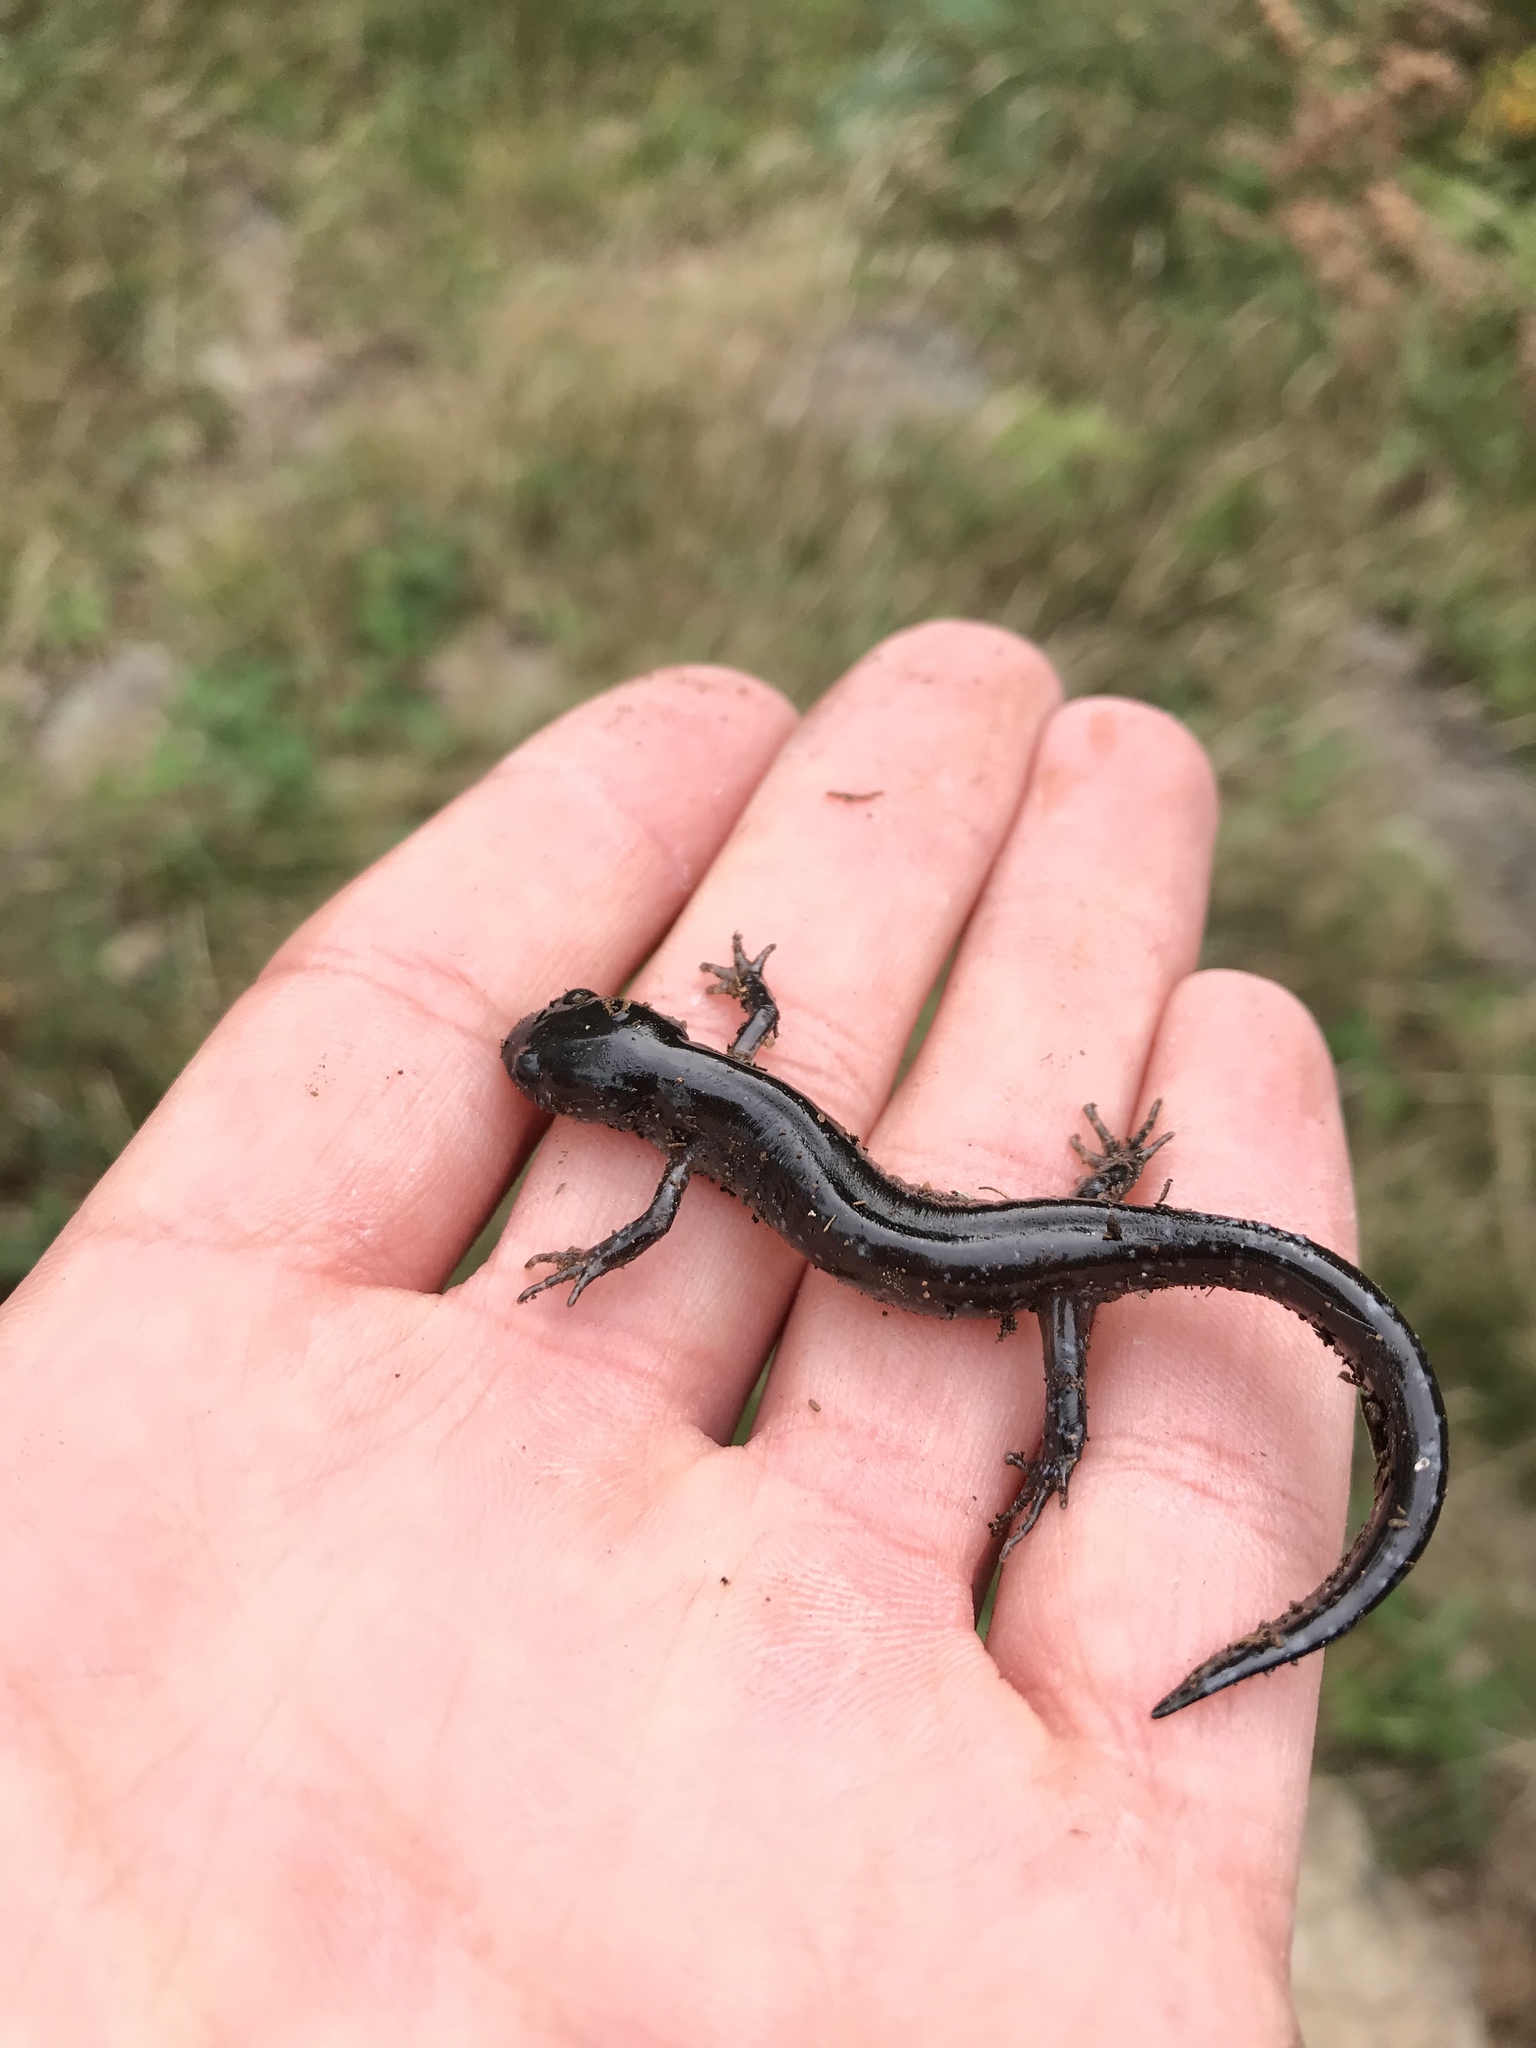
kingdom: Animalia
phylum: Chordata
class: Amphibia
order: Caudata
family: Ambystomatidae
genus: Ambystoma
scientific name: Ambystoma laterale
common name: Blue-spotted salamander
